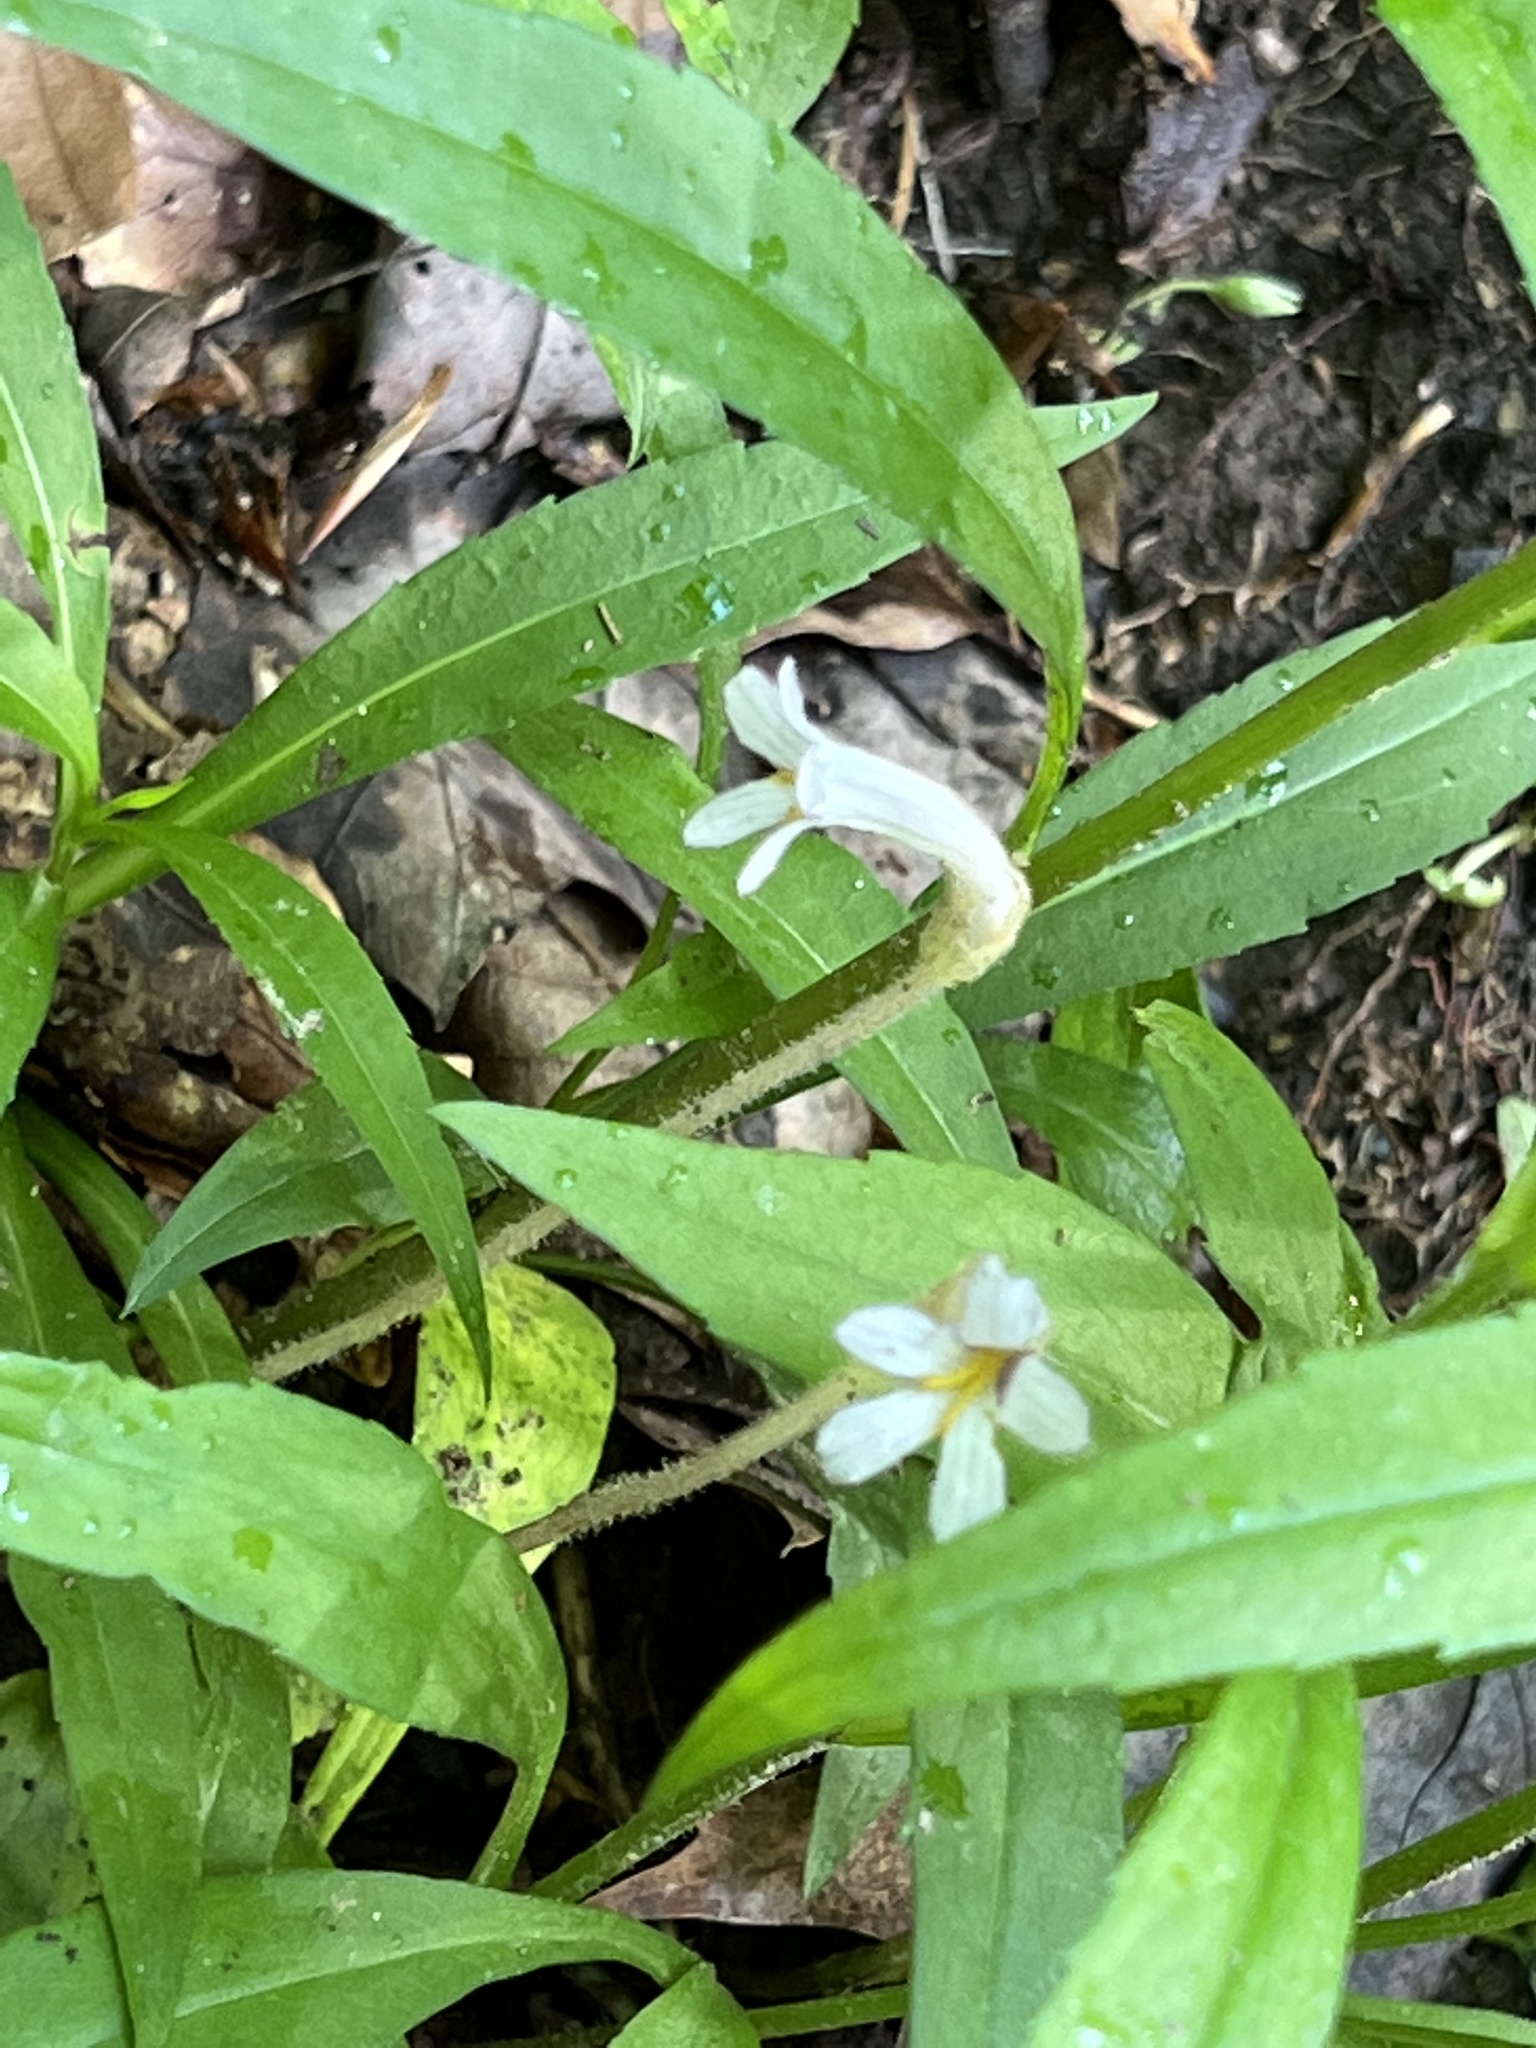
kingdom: Plantae
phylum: Tracheophyta
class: Magnoliopsida
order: Lamiales
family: Orobanchaceae
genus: Aphyllon
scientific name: Aphyllon uniflorum
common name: One-flowered broomrape
